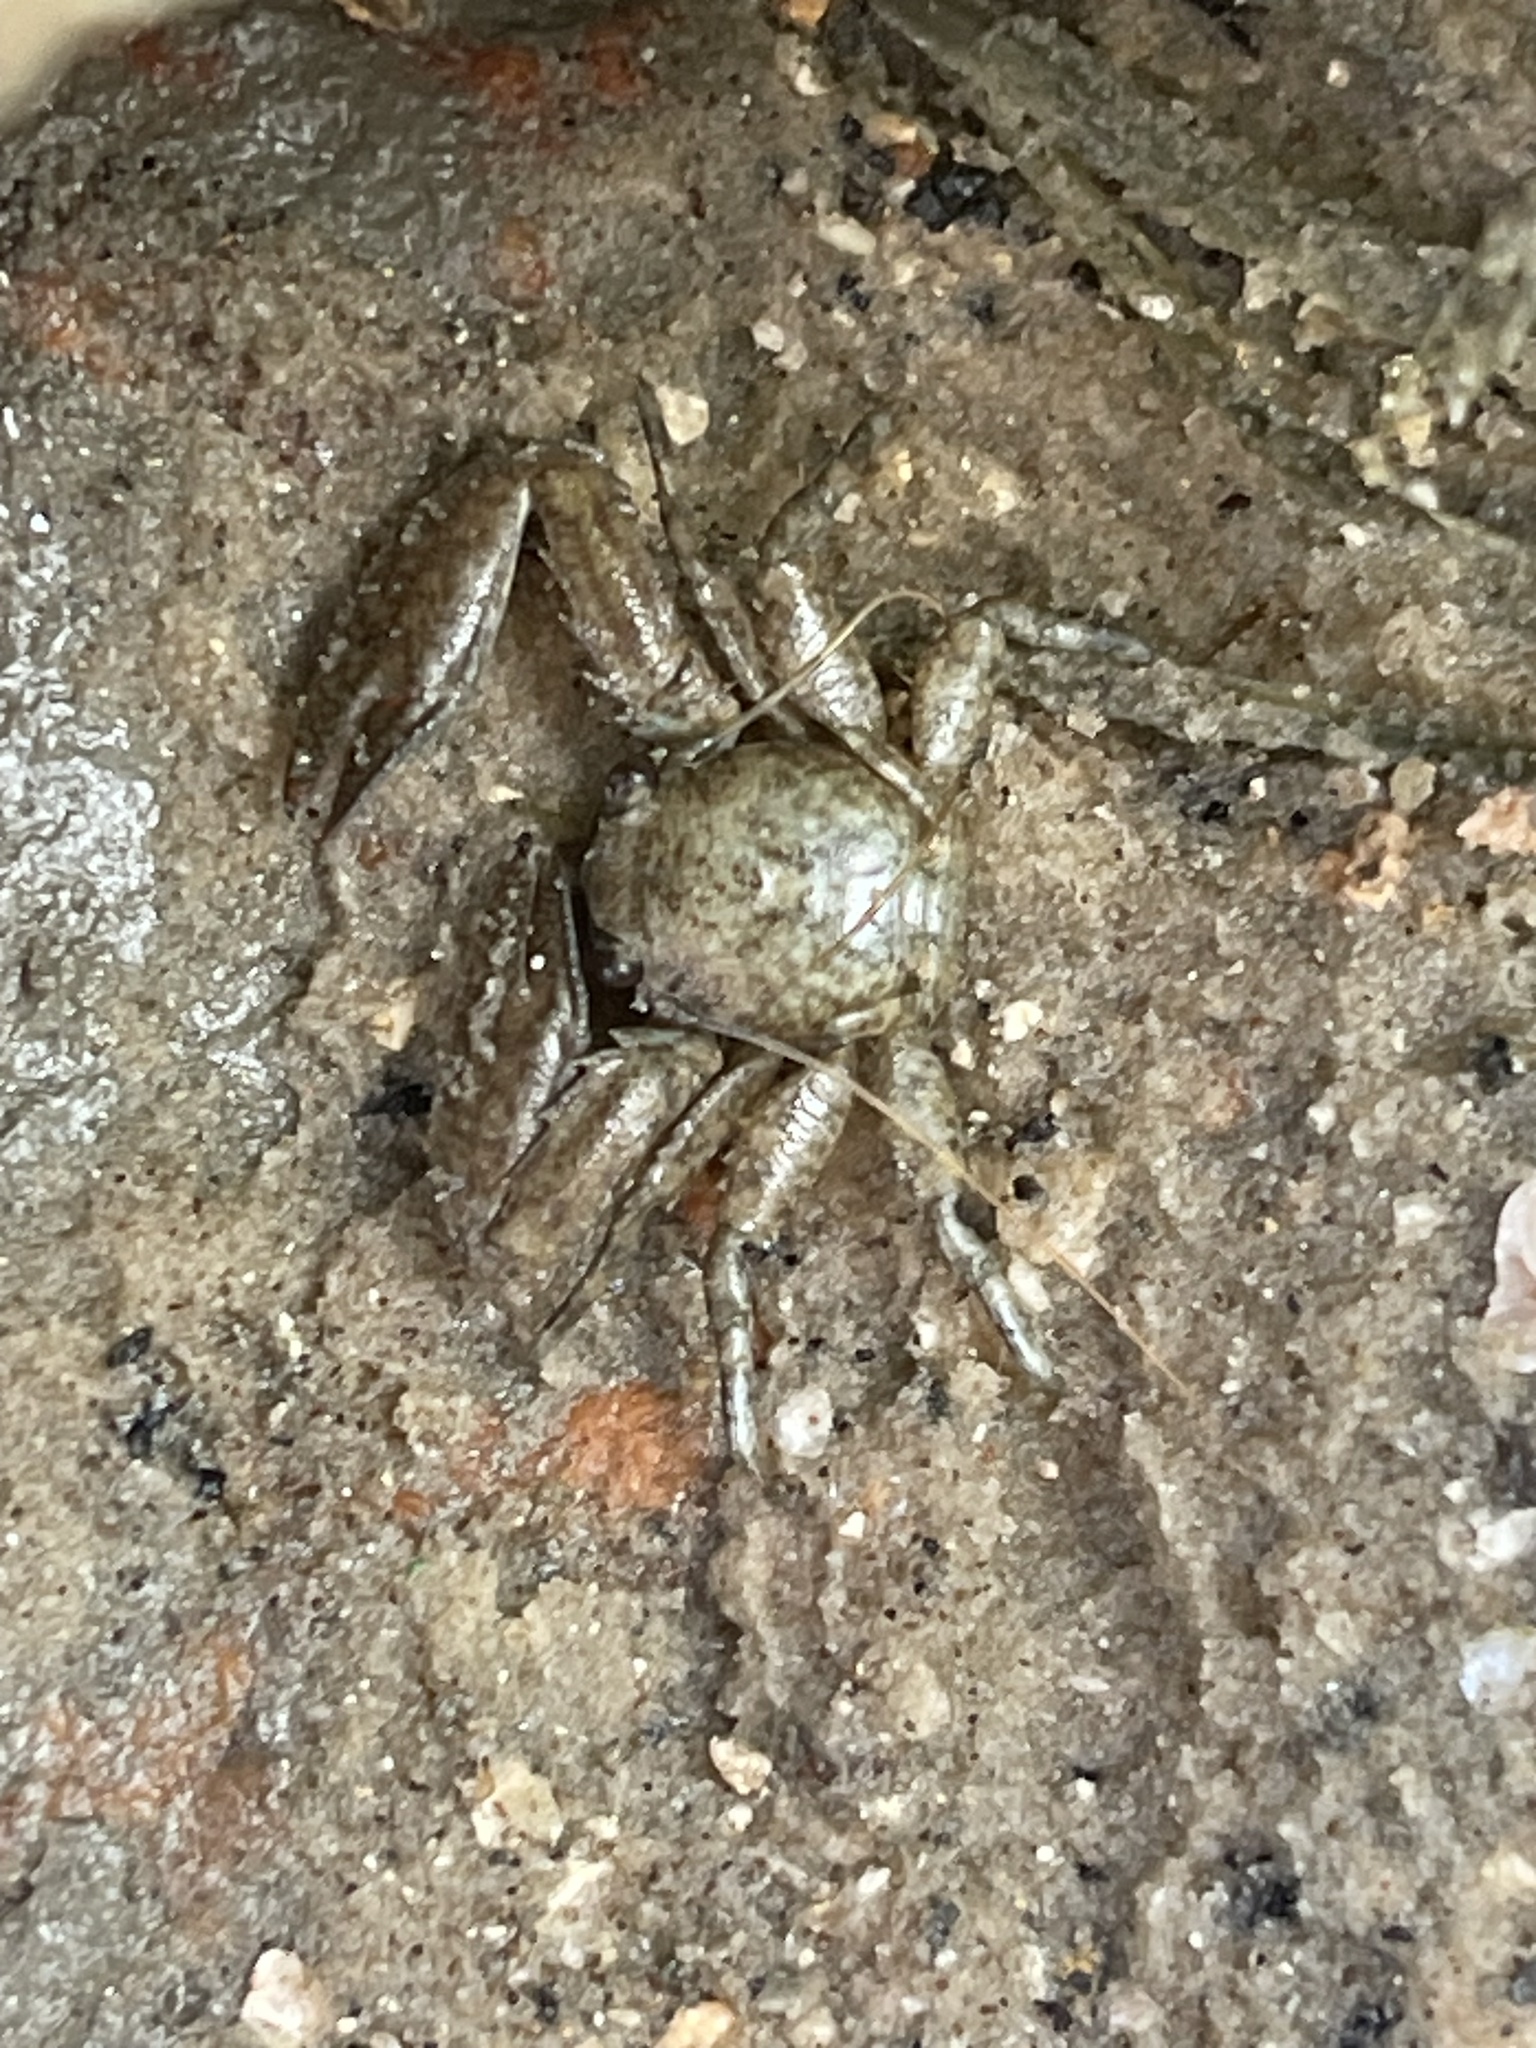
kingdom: Animalia
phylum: Arthropoda
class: Malacostraca
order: Decapoda
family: Porcellanidae
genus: Petrolisthes
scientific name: Petrolisthes armatus
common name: Green porcelain crab
